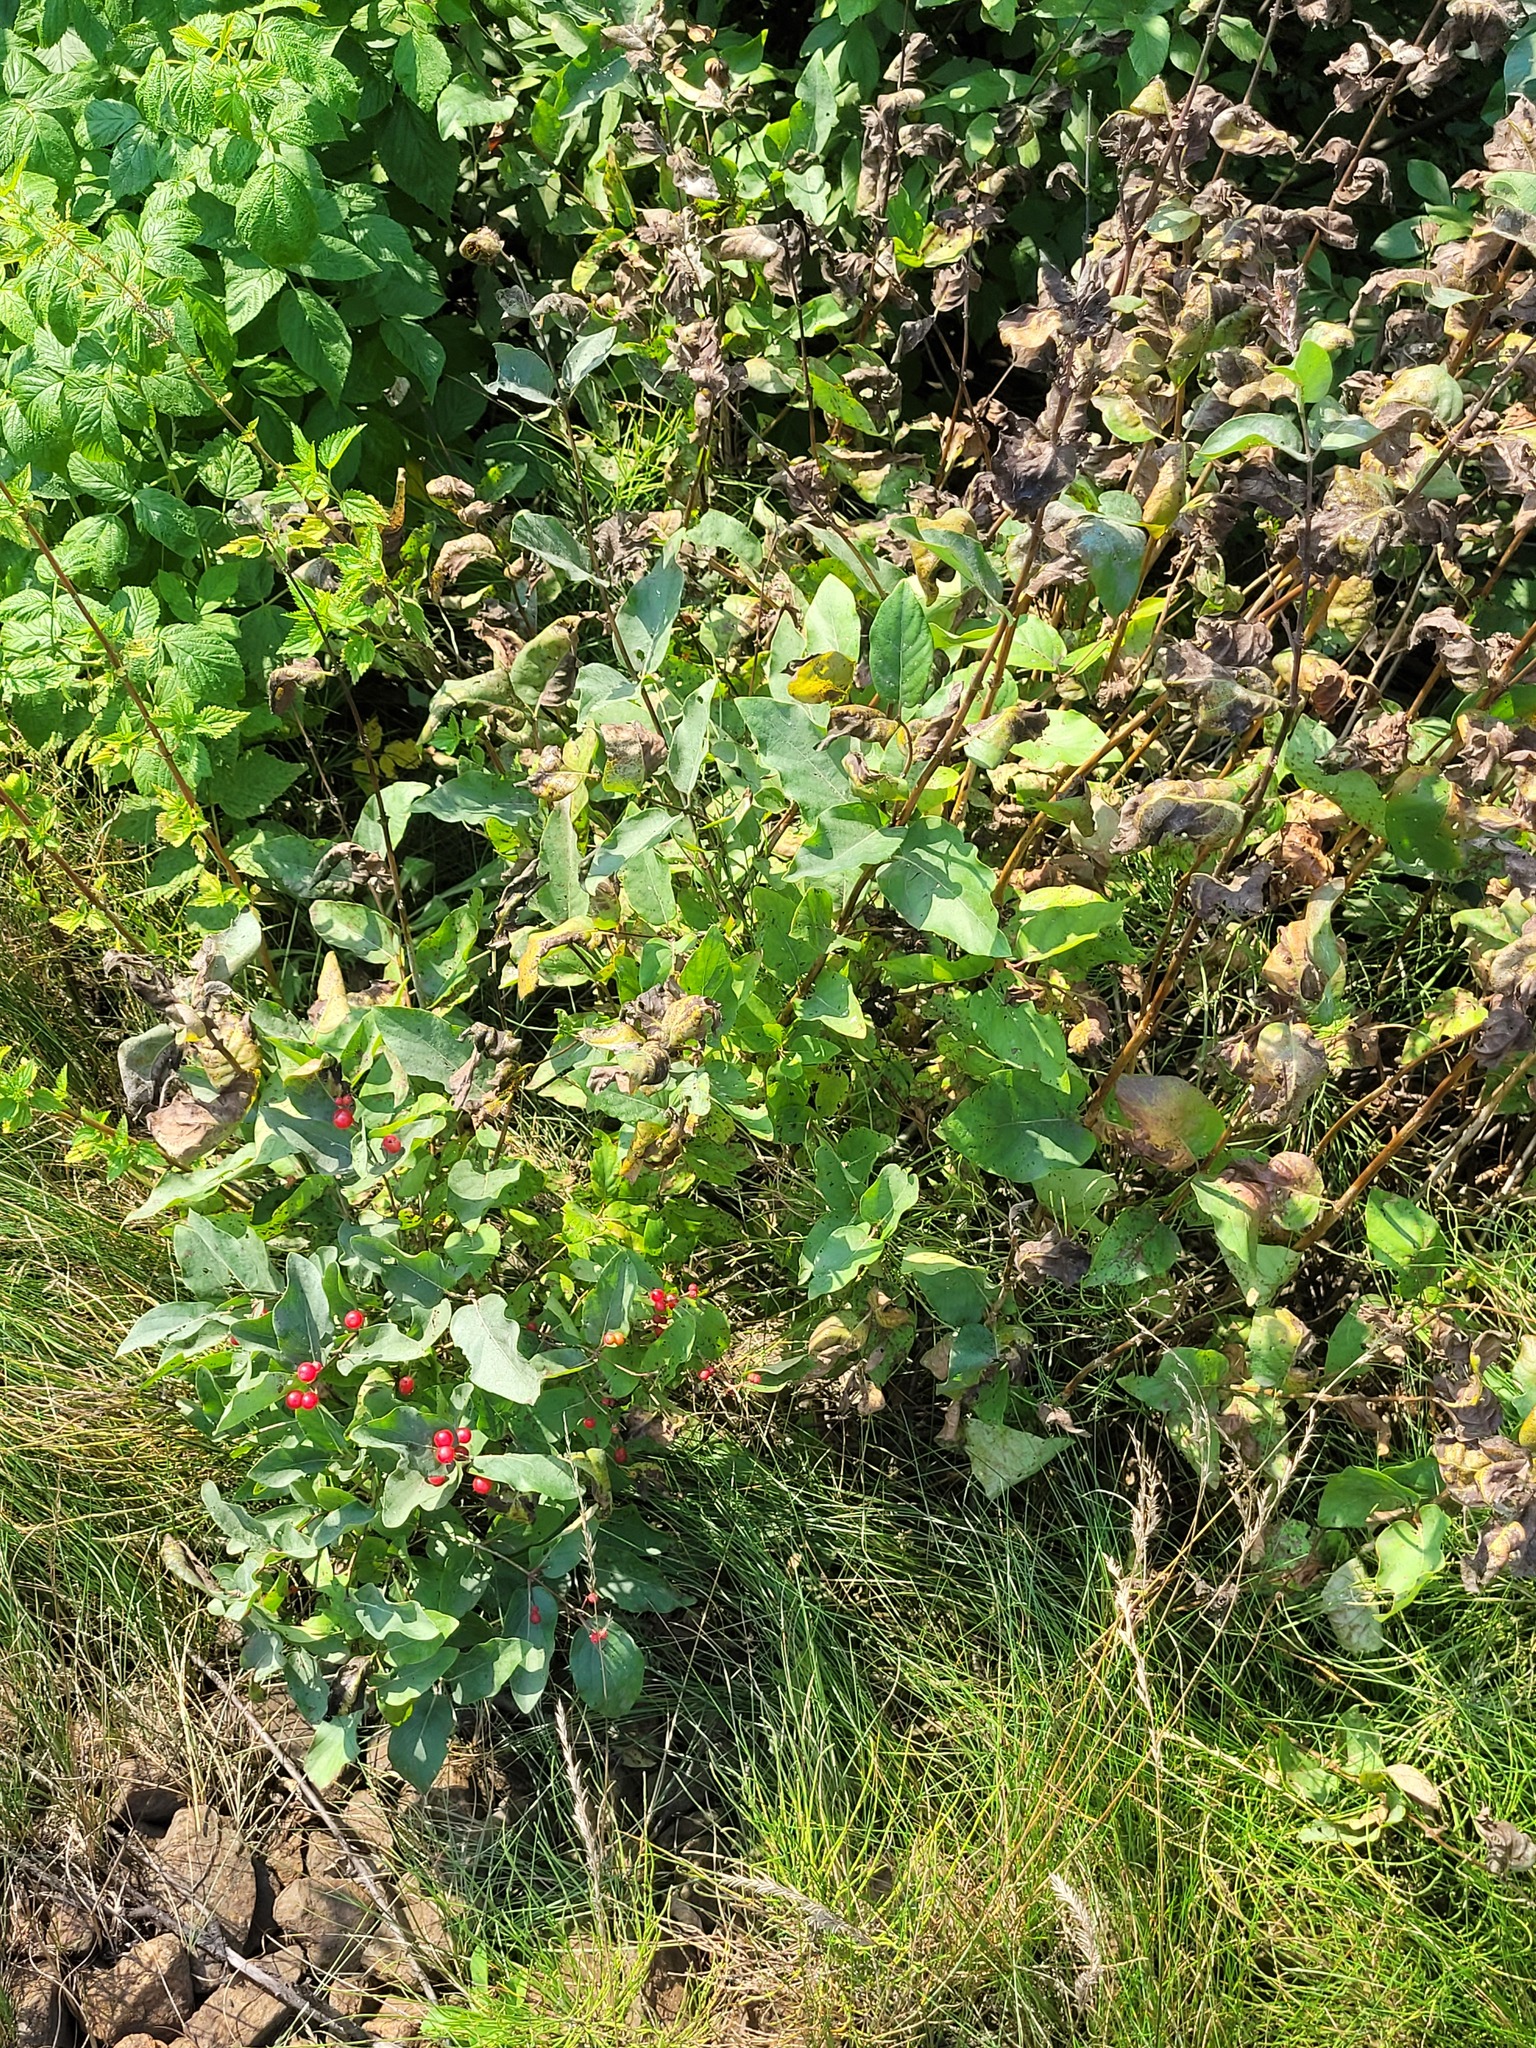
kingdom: Plantae
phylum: Tracheophyta
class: Magnoliopsida
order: Dipsacales
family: Caprifoliaceae
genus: Lonicera
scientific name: Lonicera tatarica
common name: Tatarian honeysuckle
